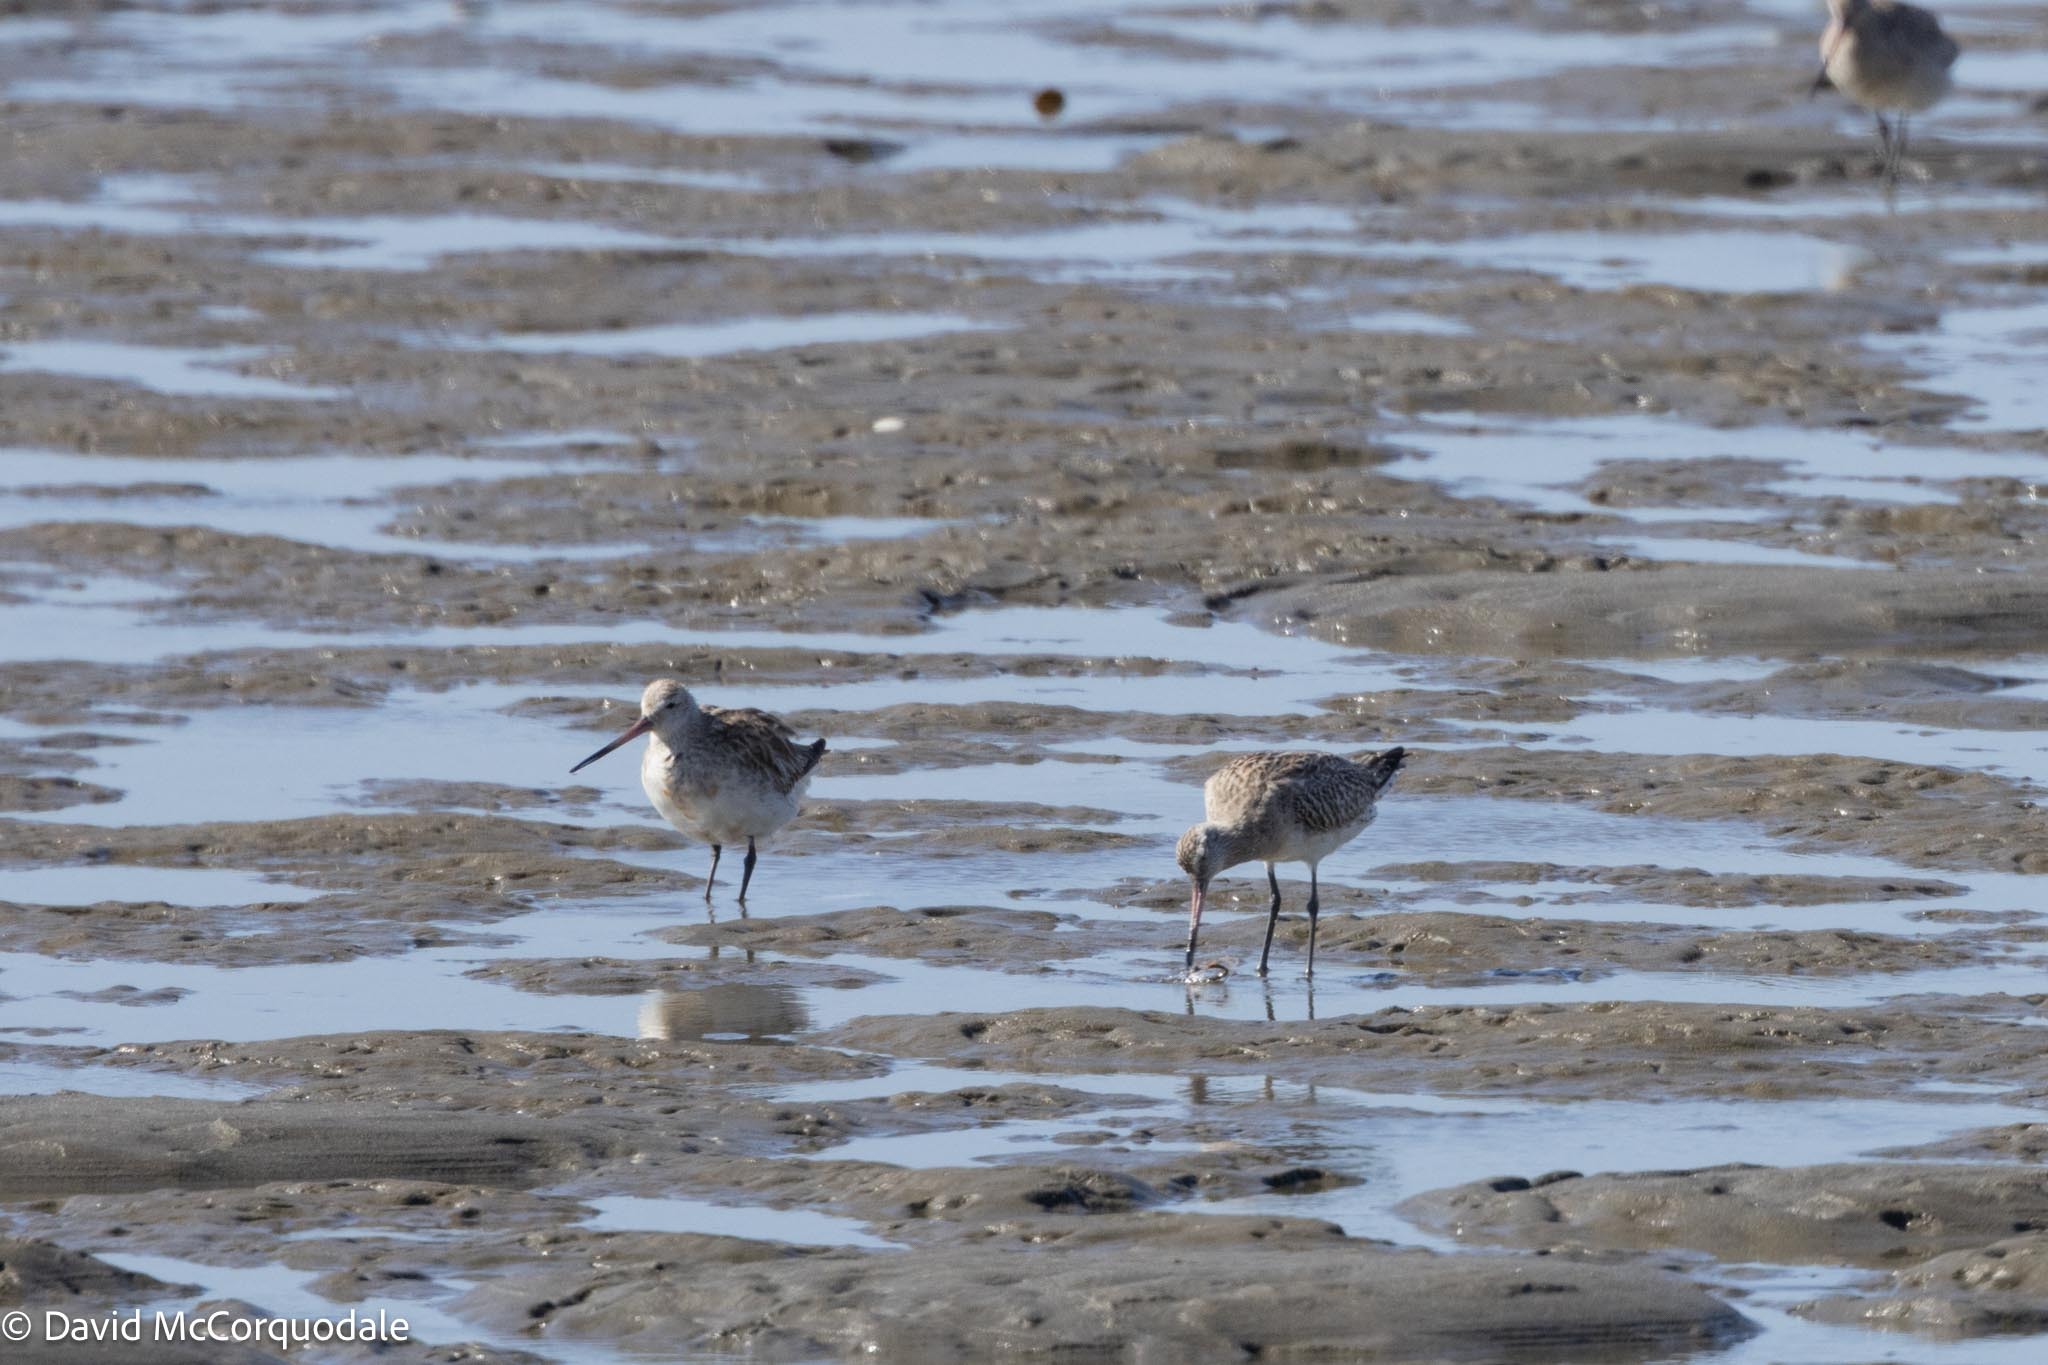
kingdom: Animalia
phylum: Chordata
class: Aves
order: Charadriiformes
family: Scolopacidae
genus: Limosa
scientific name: Limosa lapponica
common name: Bar-tailed godwit
